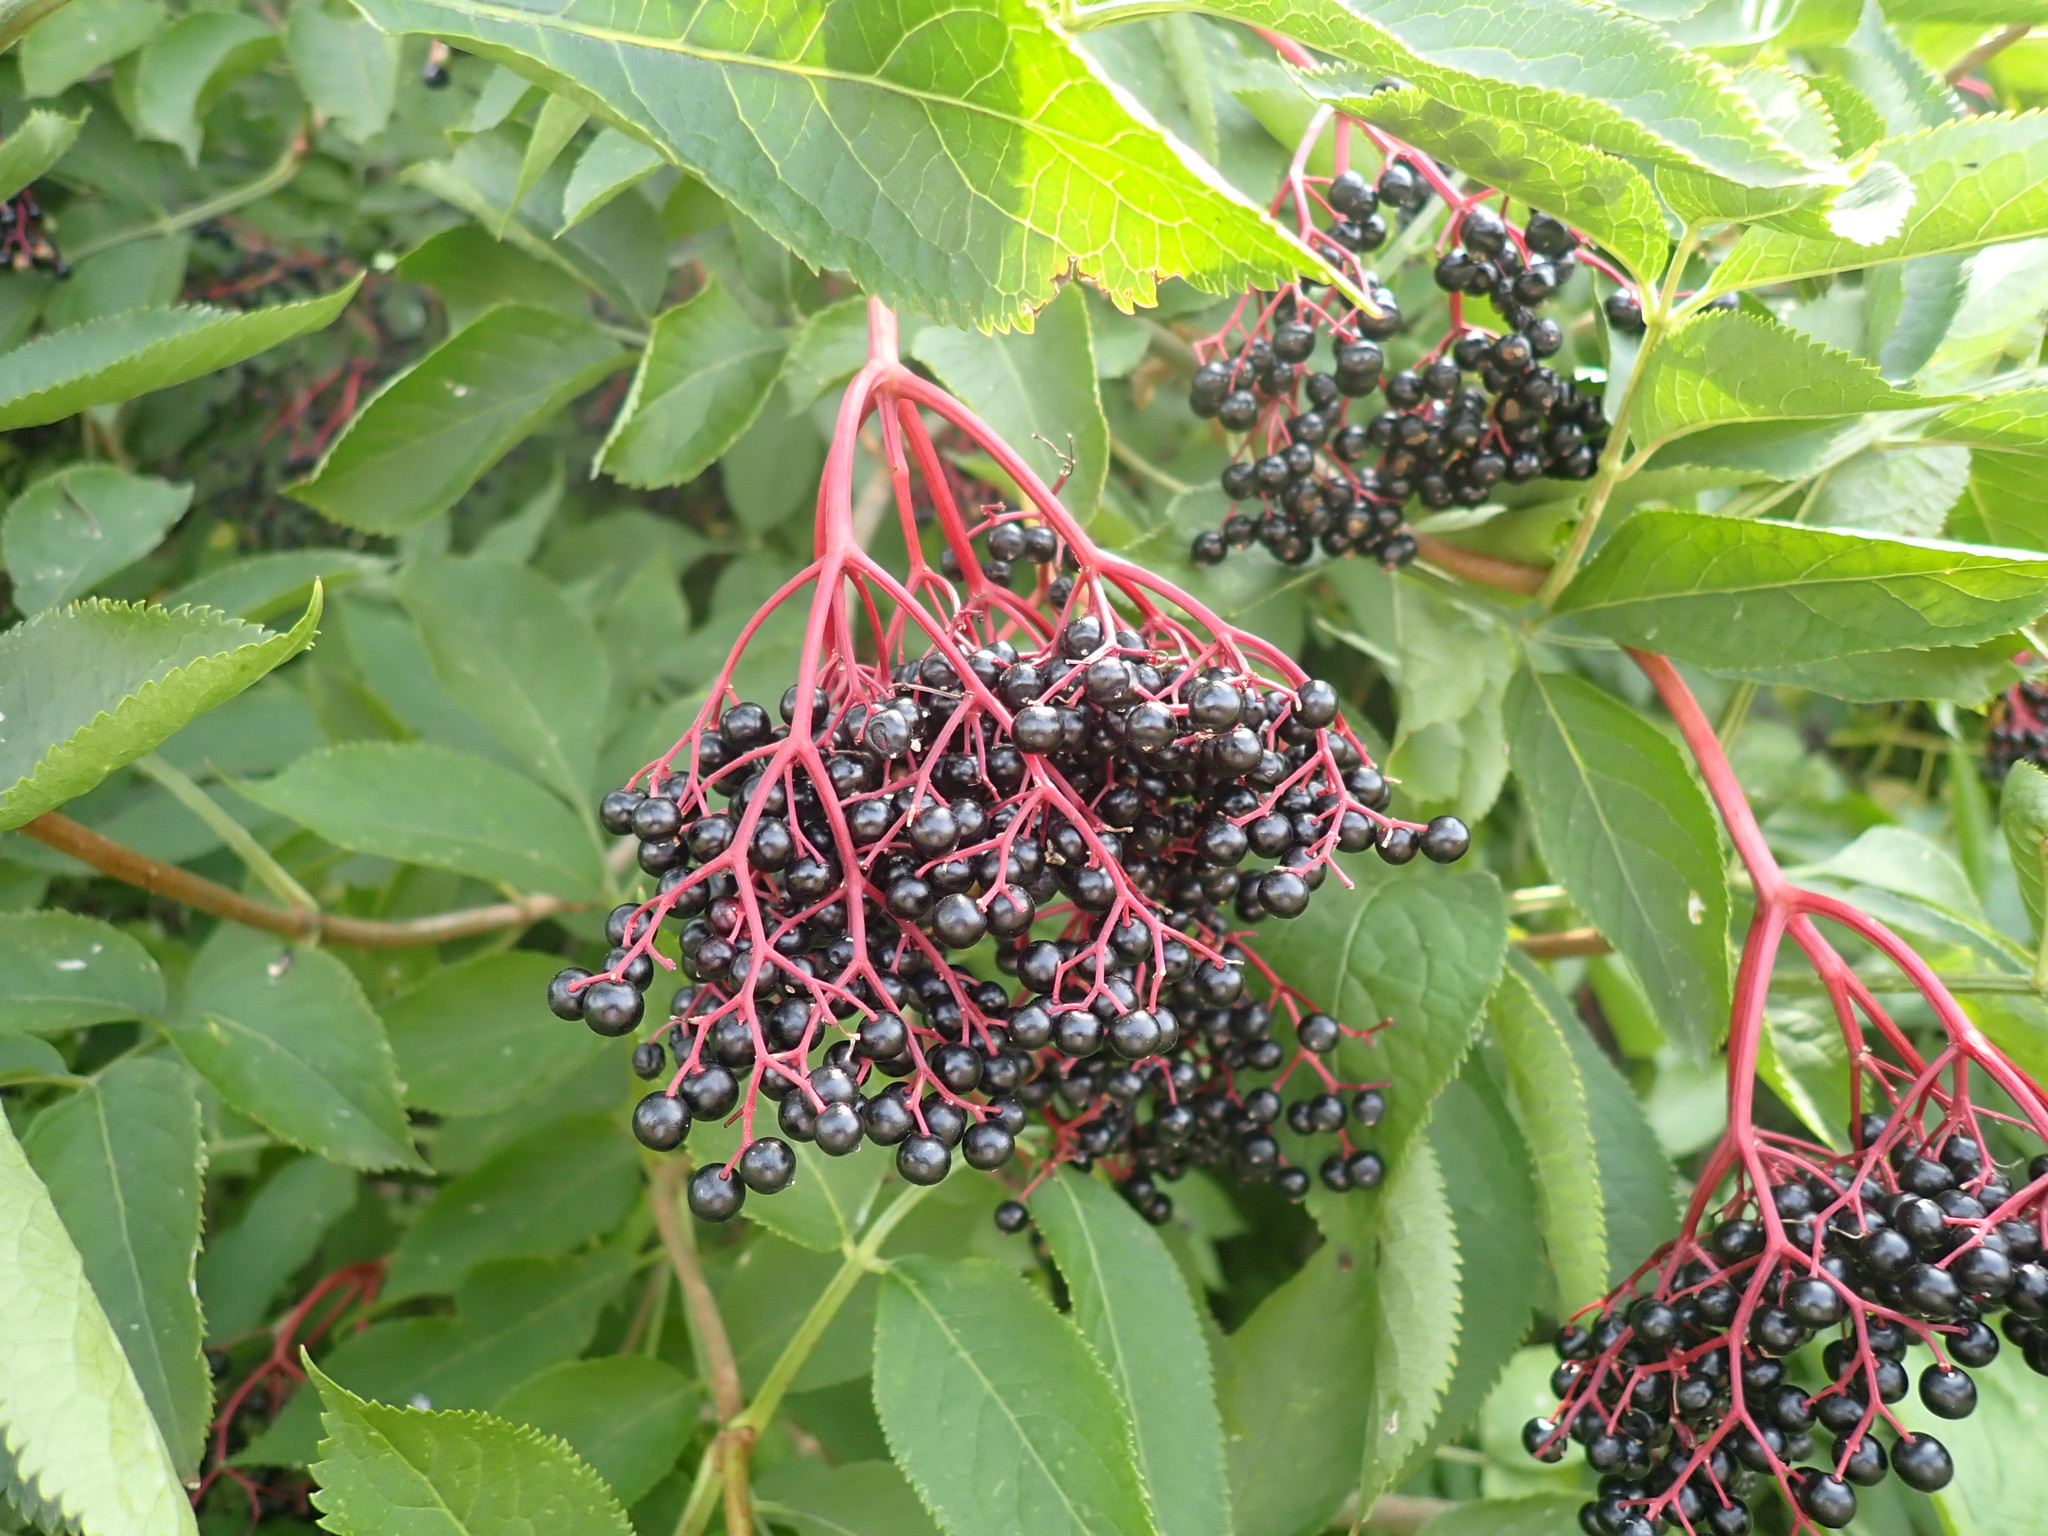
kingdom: Plantae
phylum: Tracheophyta
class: Magnoliopsida
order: Dipsacales
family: Viburnaceae
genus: Sambucus
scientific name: Sambucus nigra
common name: Elder
